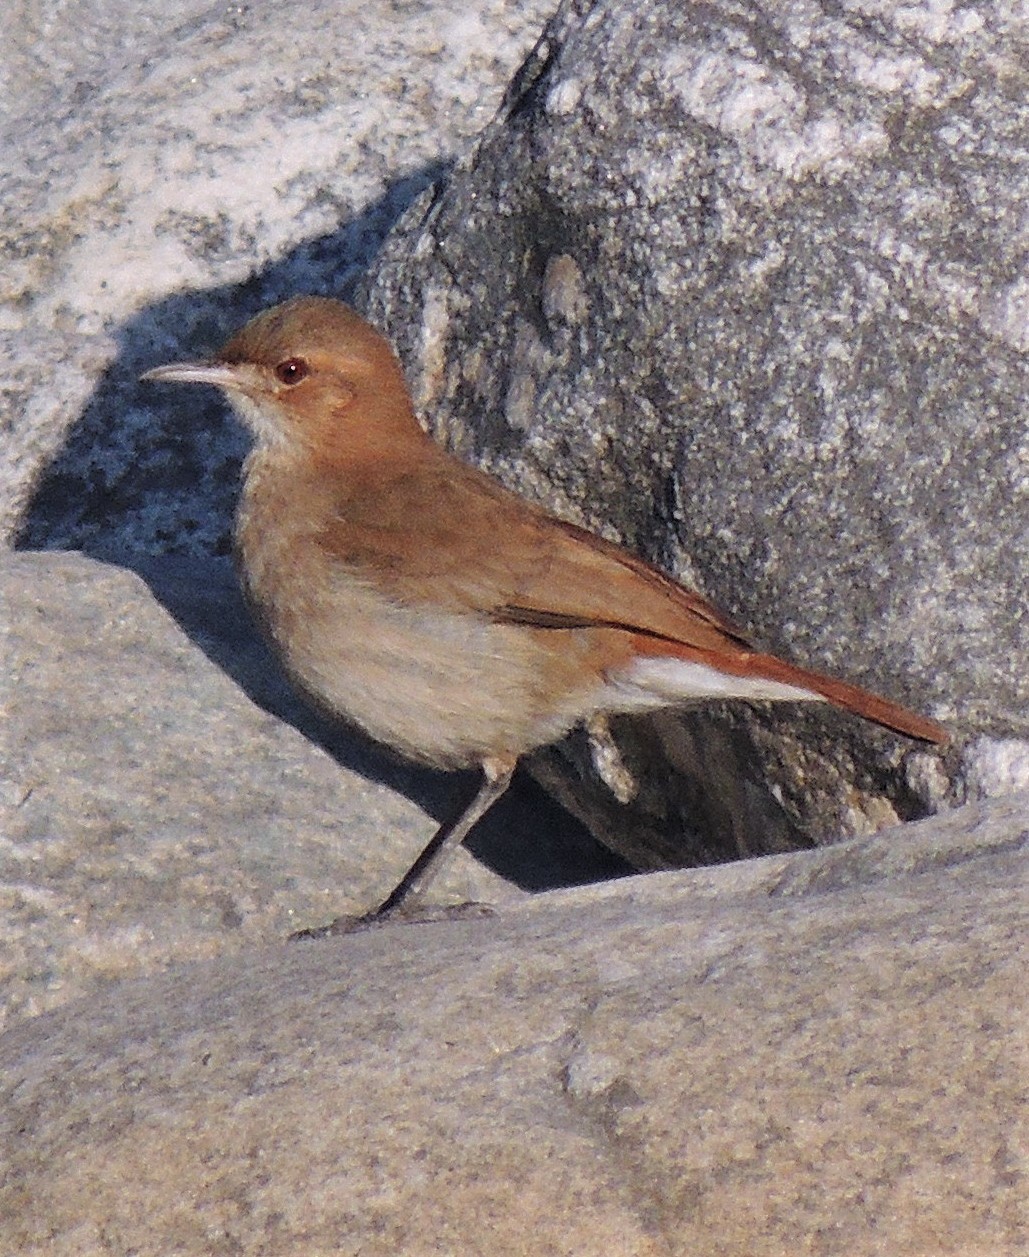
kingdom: Animalia
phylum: Chordata
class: Aves
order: Passeriformes
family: Furnariidae
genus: Furnarius
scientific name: Furnarius rufus
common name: Rufous hornero
